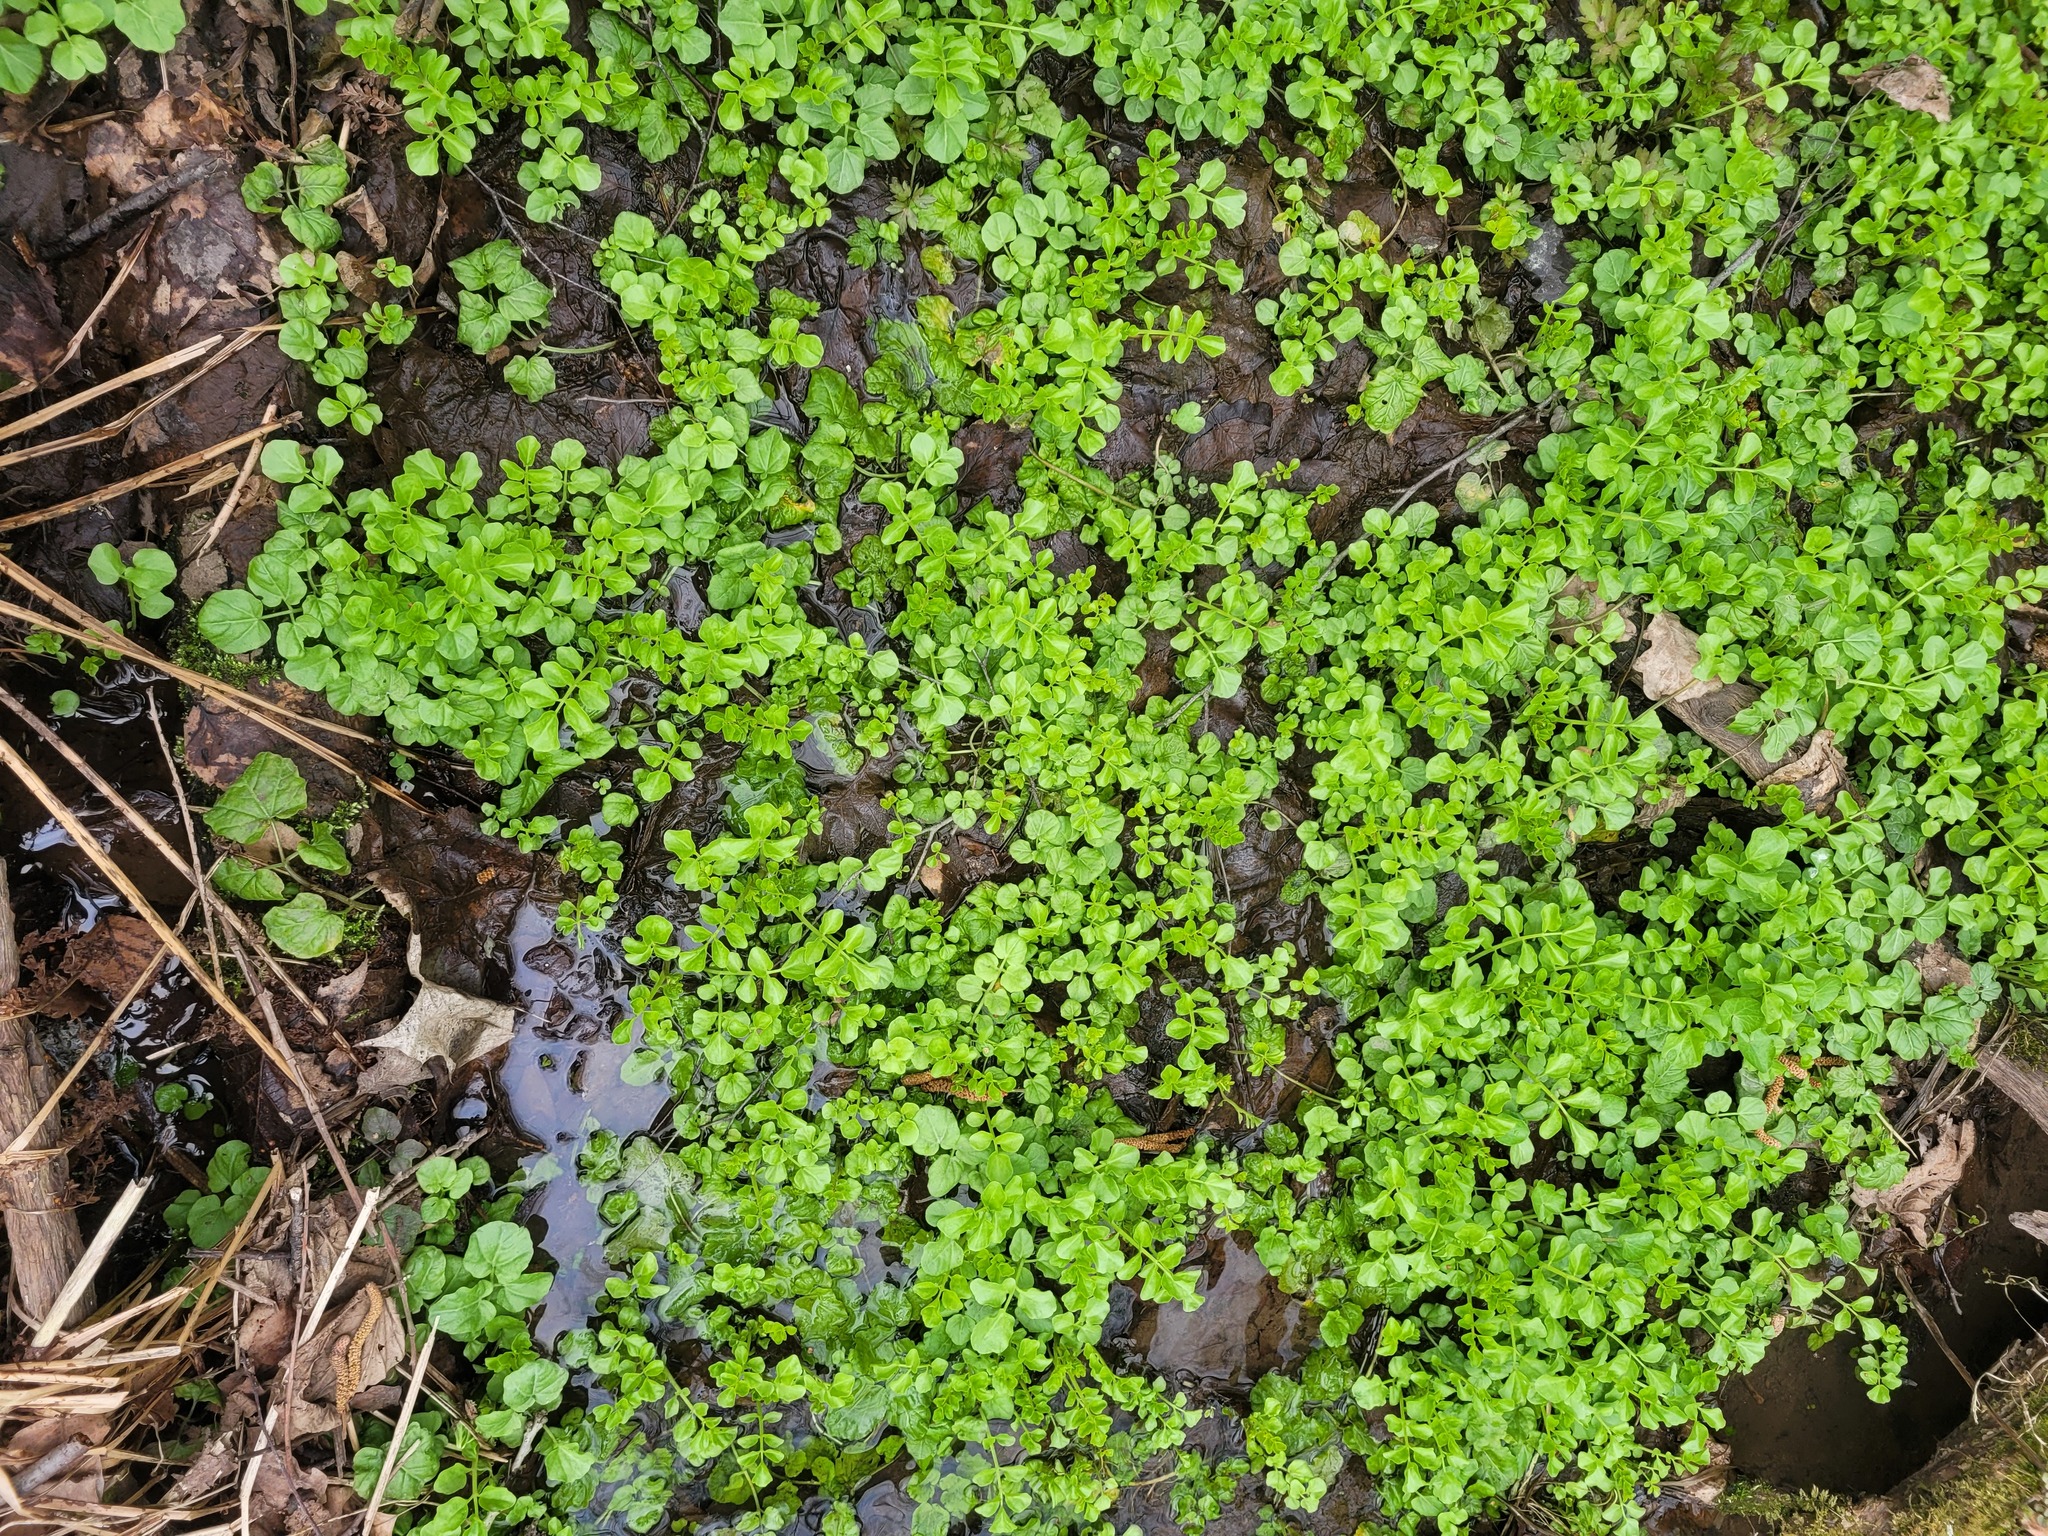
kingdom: Plantae
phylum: Tracheophyta
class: Magnoliopsida
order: Brassicales
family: Brassicaceae
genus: Cardamine
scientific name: Cardamine amara
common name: Large bitter-cress
